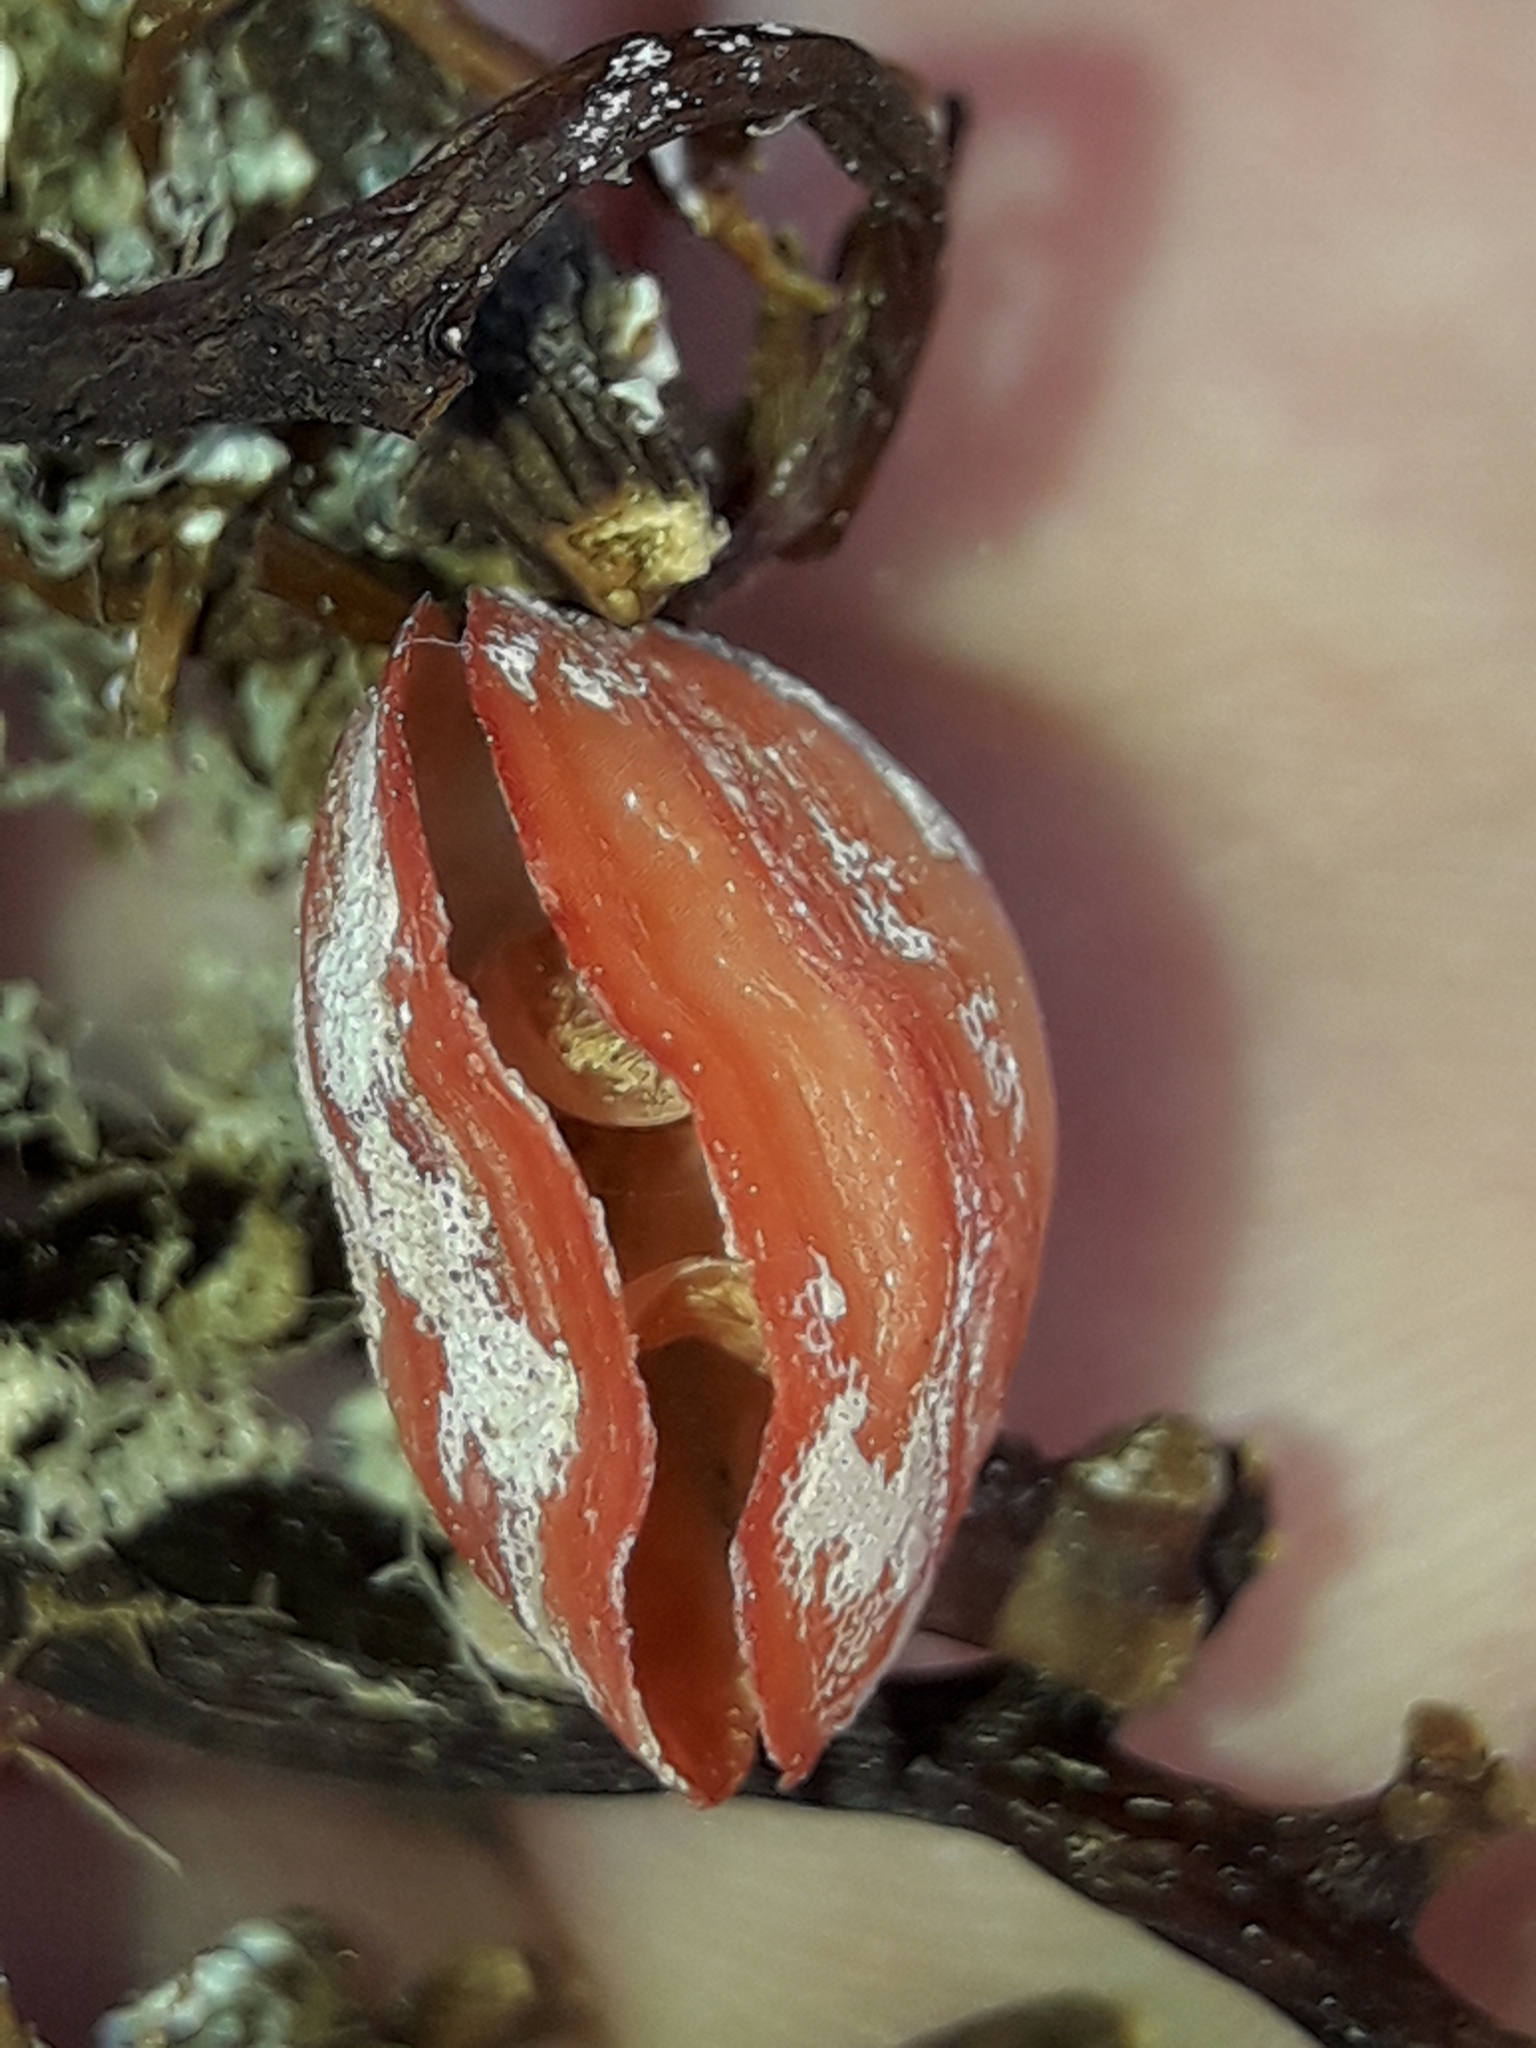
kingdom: Animalia
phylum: Brachiopoda
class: Rhynchonellata
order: Terebratulida
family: Terebratellidae
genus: Calloria
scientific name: Calloria inconspicua
